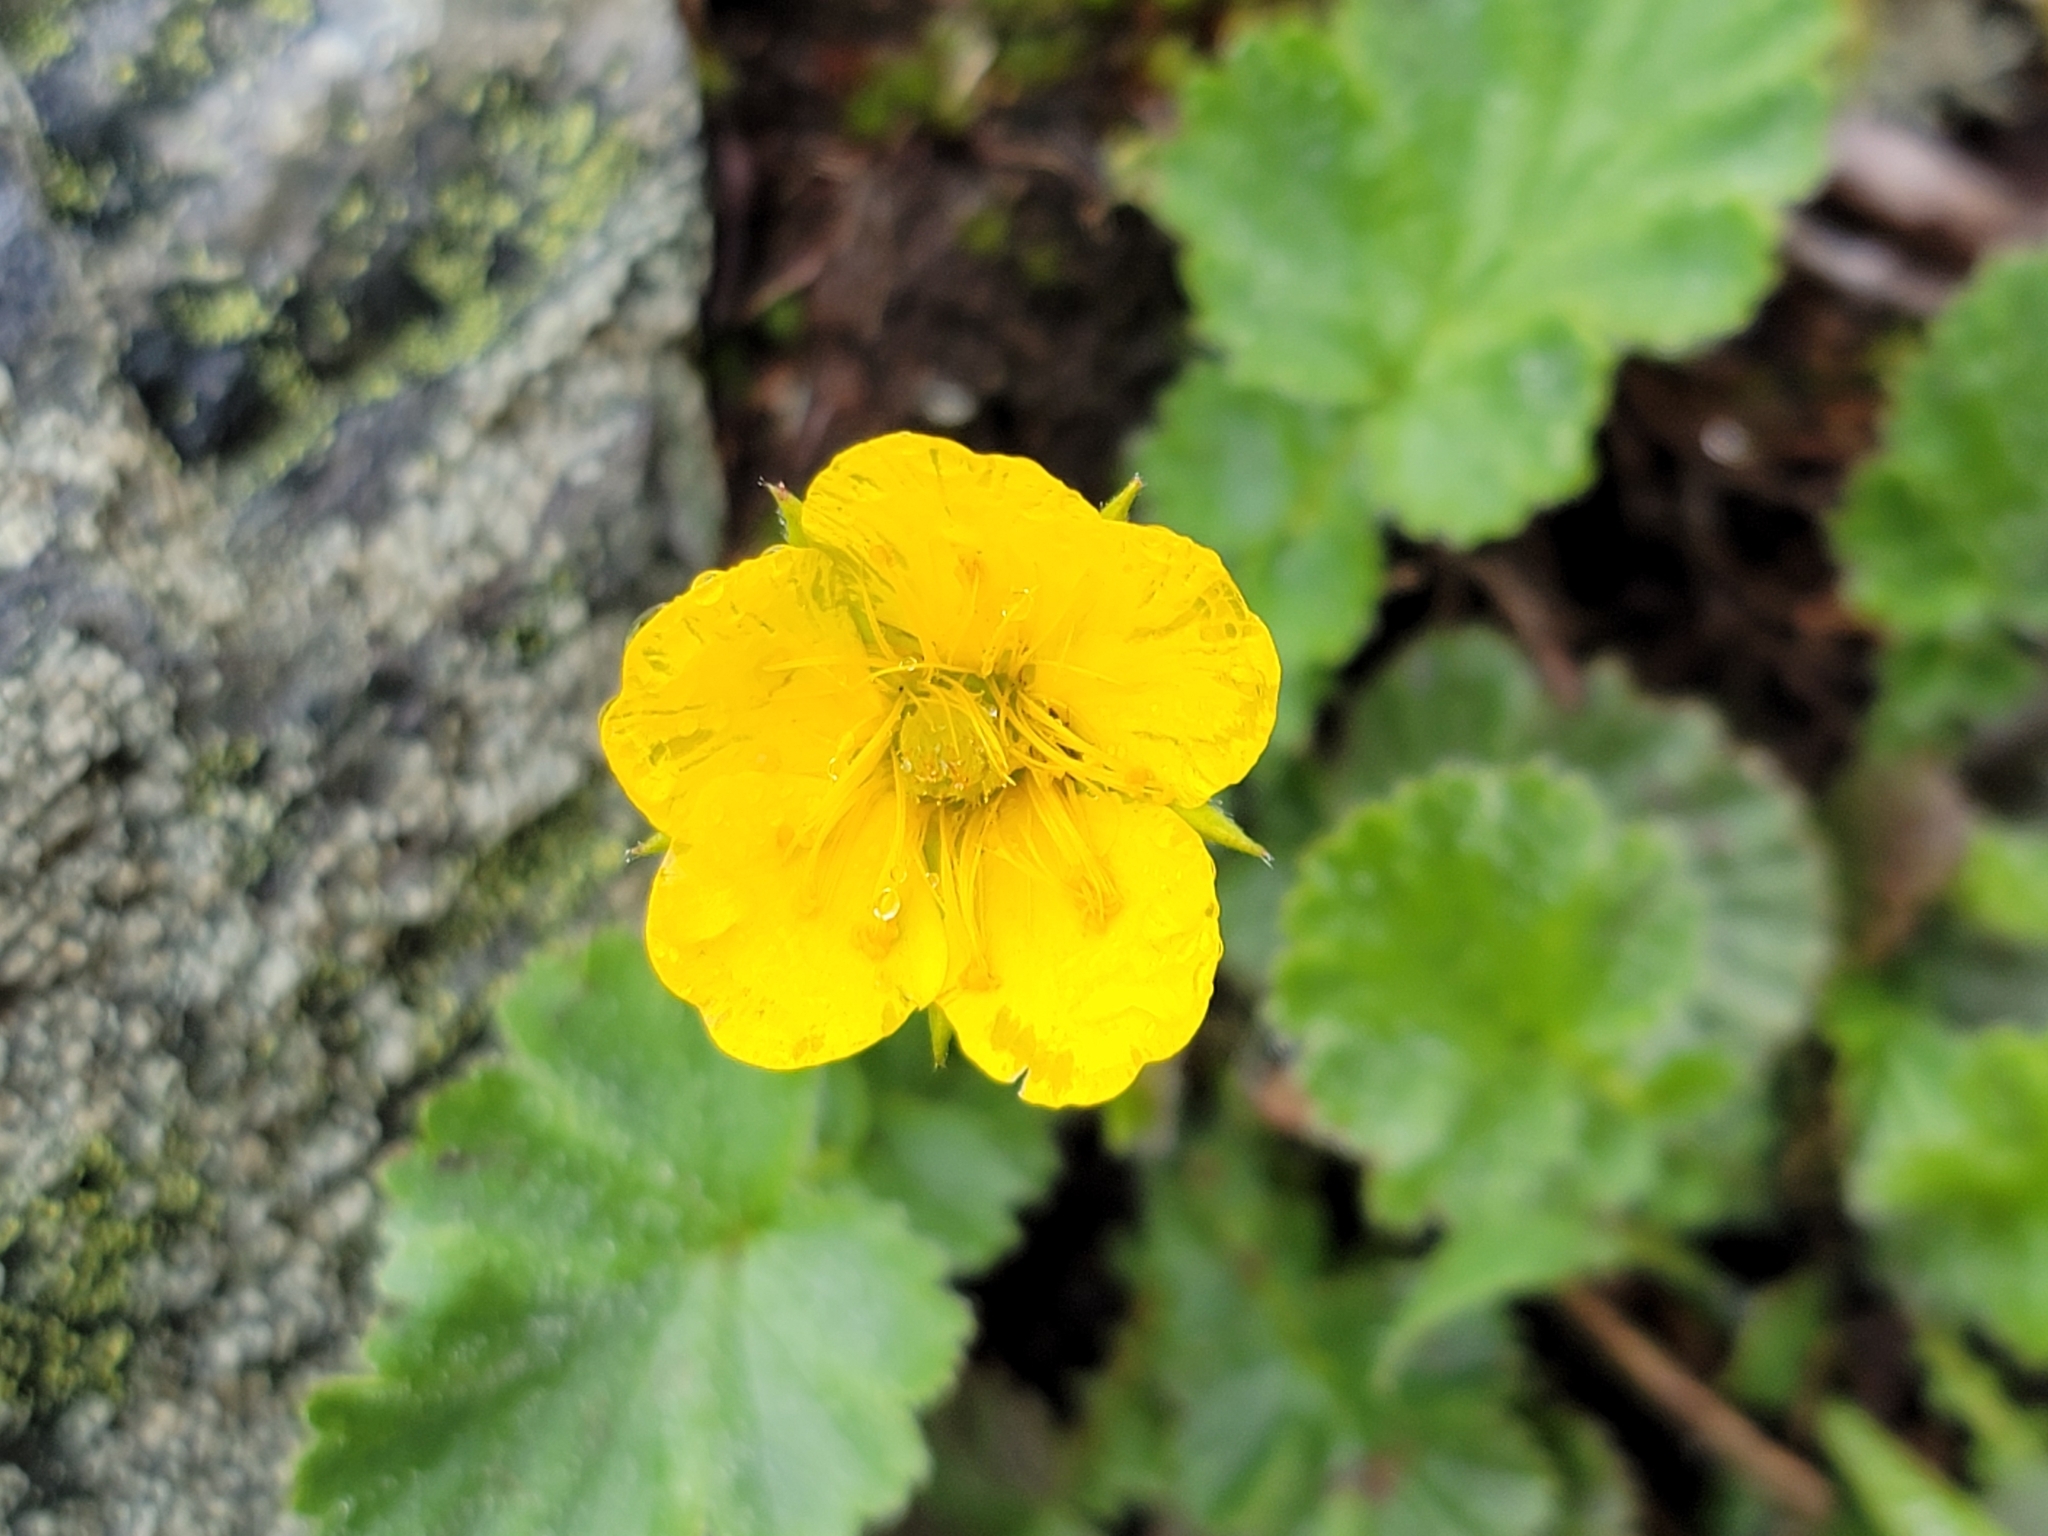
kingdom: Plantae
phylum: Tracheophyta
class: Magnoliopsida
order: Rosales
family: Rosaceae
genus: Geum
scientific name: Geum montanum
